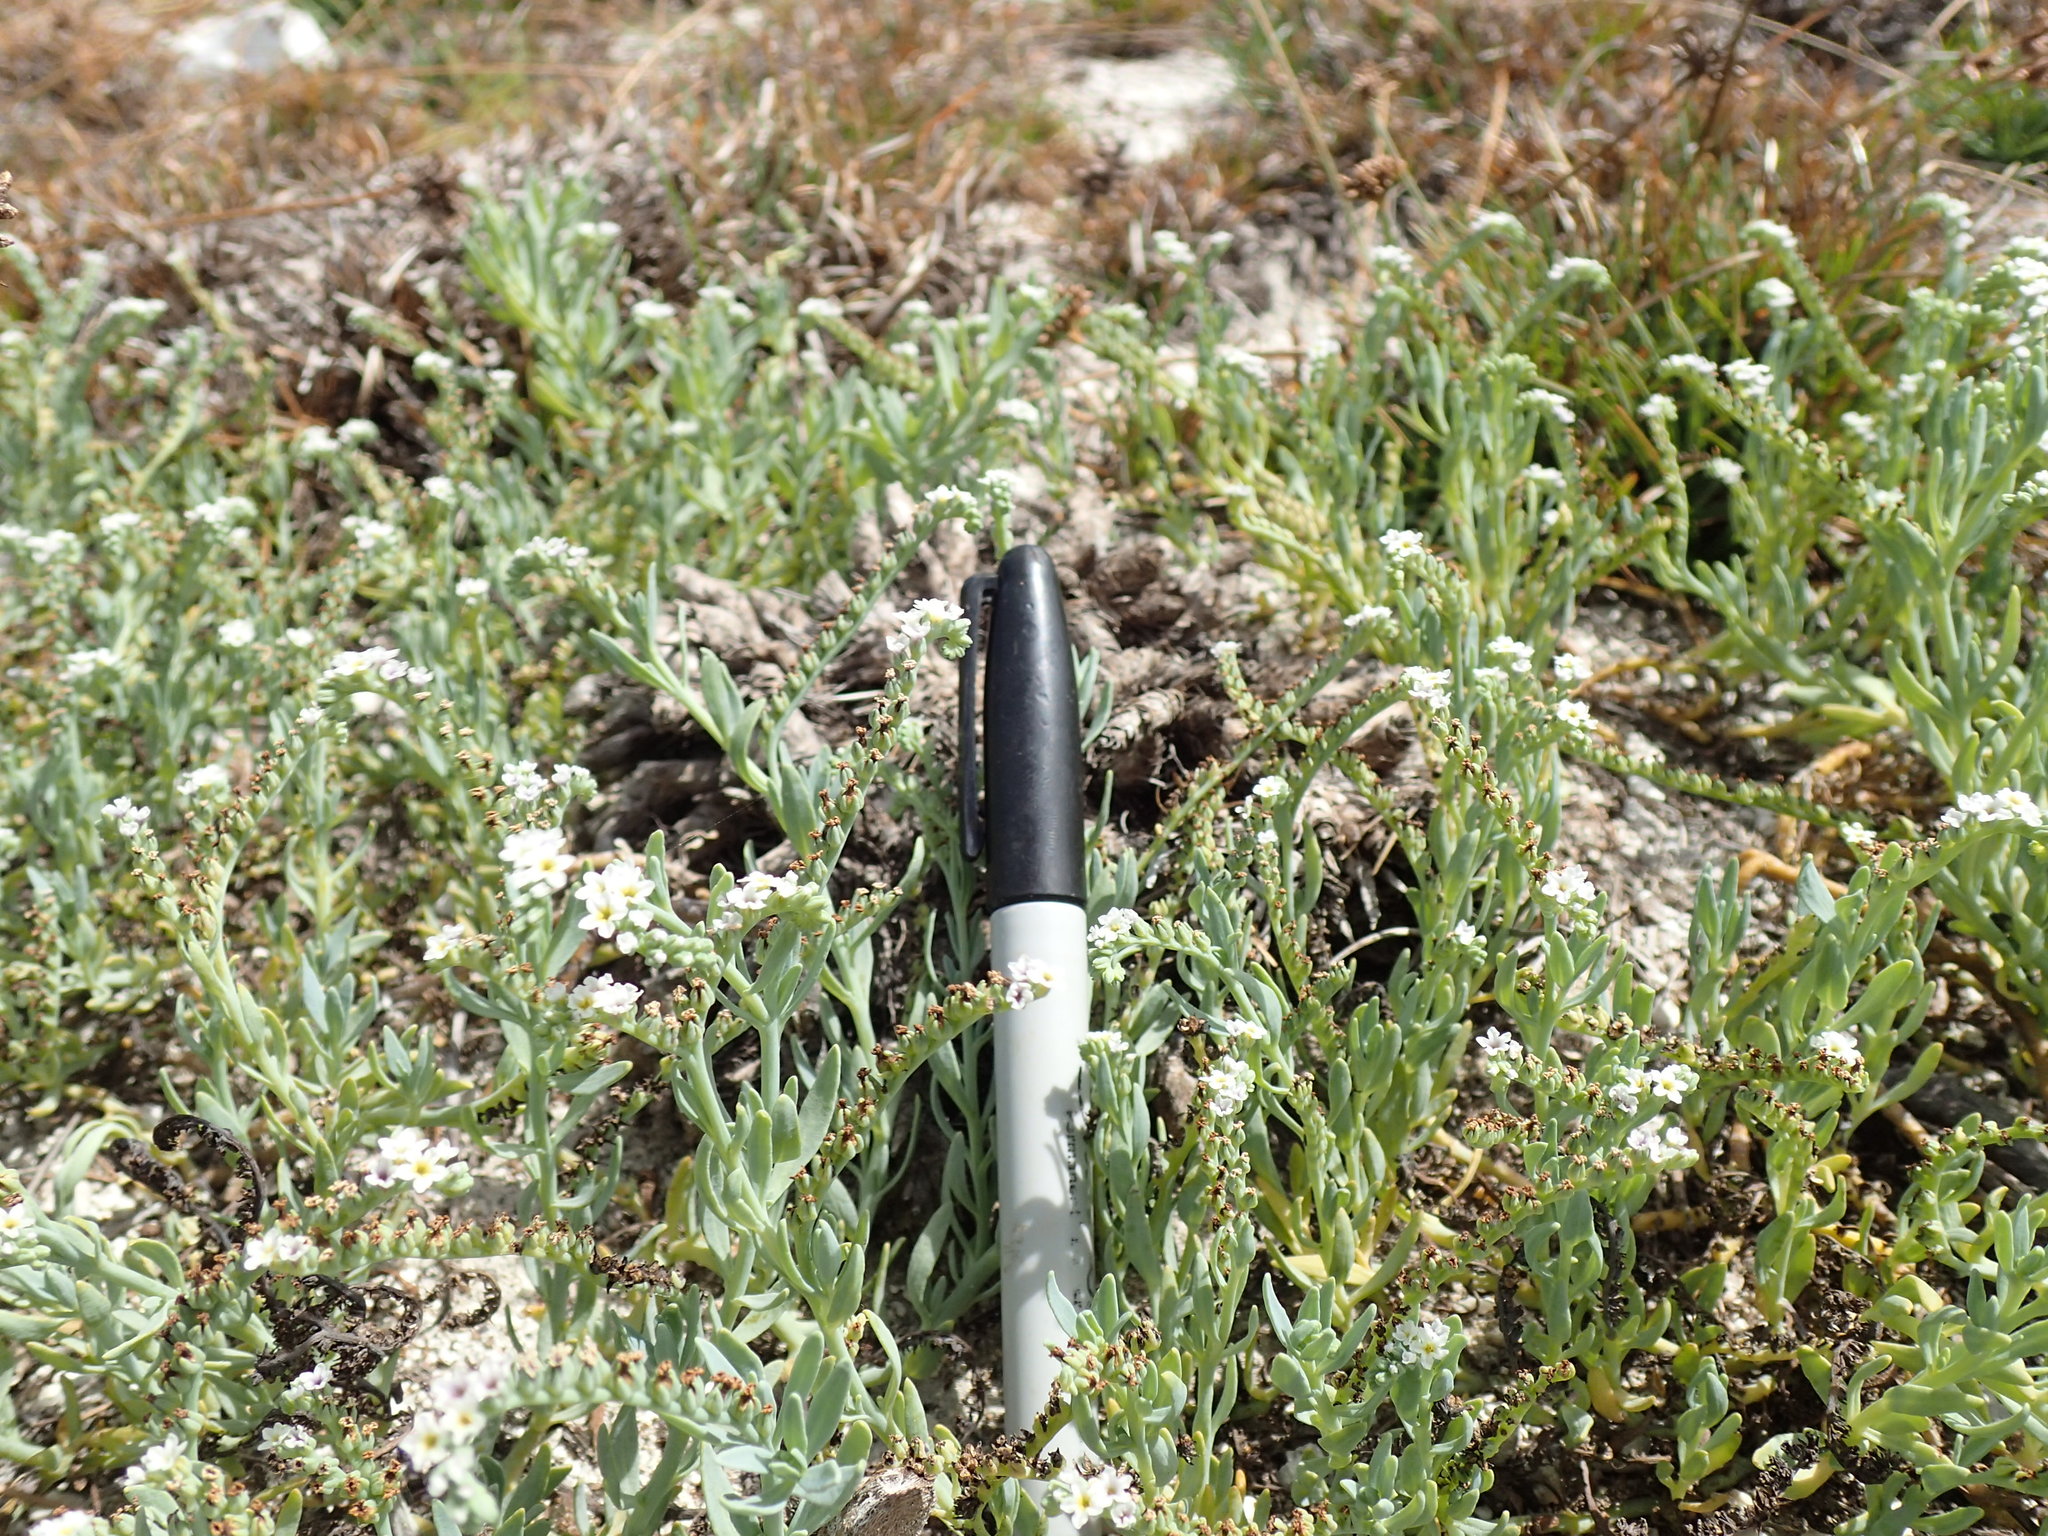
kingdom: Plantae
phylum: Tracheophyta
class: Magnoliopsida
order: Boraginales
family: Heliotropiaceae
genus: Heliotropium
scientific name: Heliotropium curassavicum
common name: Seaside heliotrope
